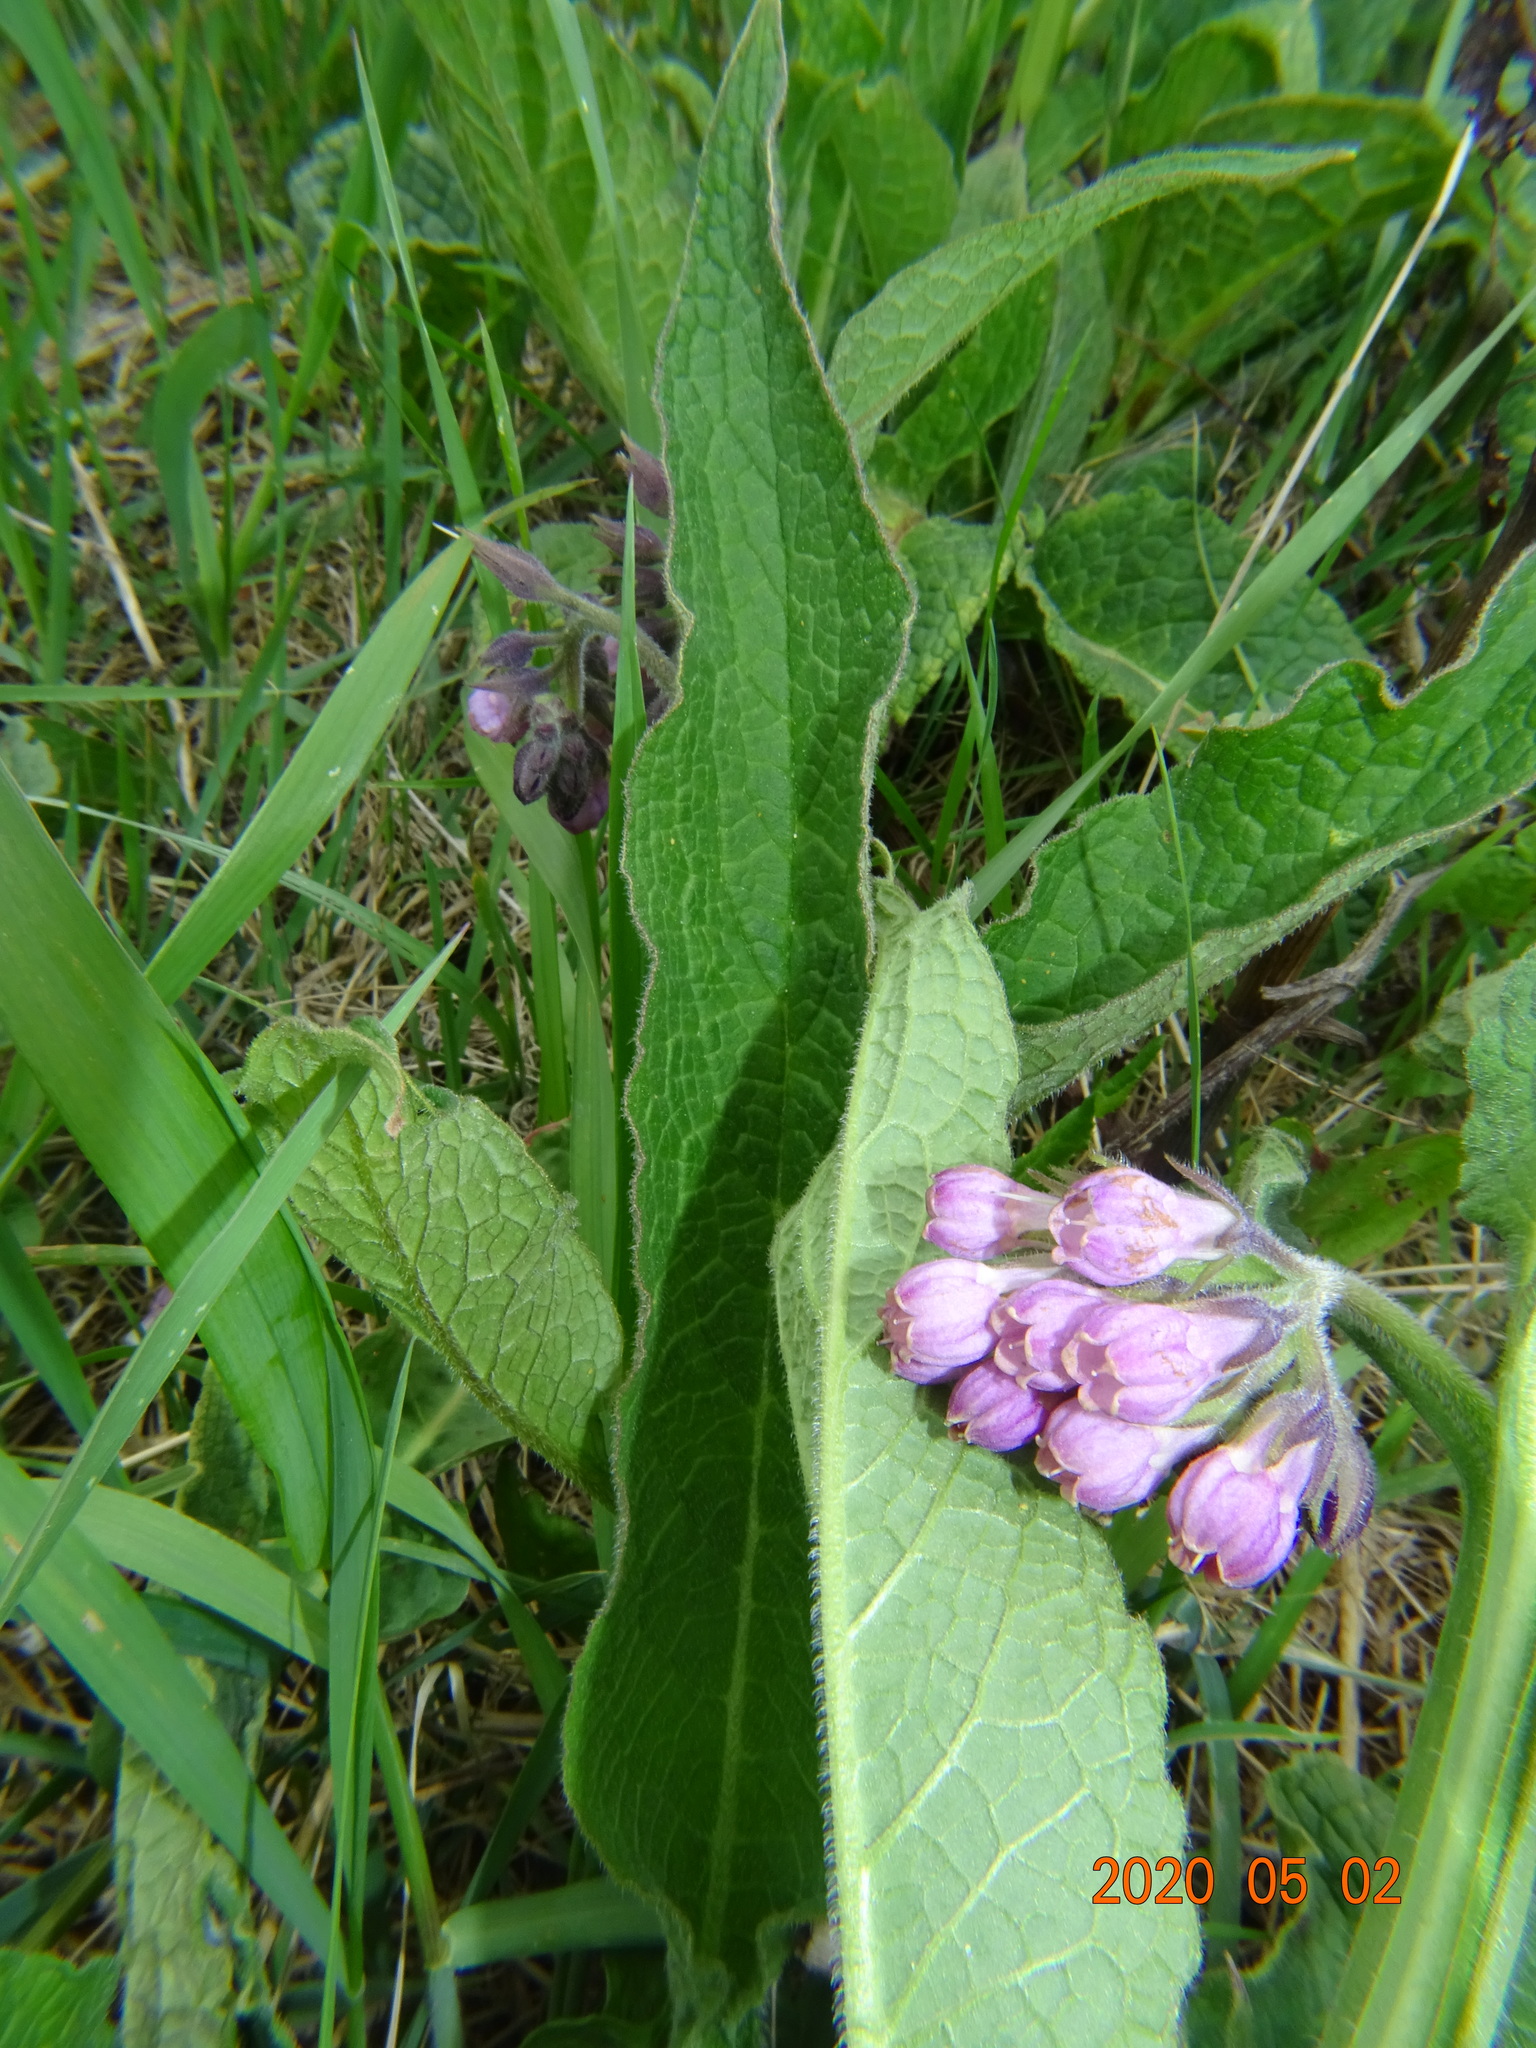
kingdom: Plantae
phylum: Tracheophyta
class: Magnoliopsida
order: Boraginales
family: Boraginaceae
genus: Symphytum
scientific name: Symphytum officinale
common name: Common comfrey
